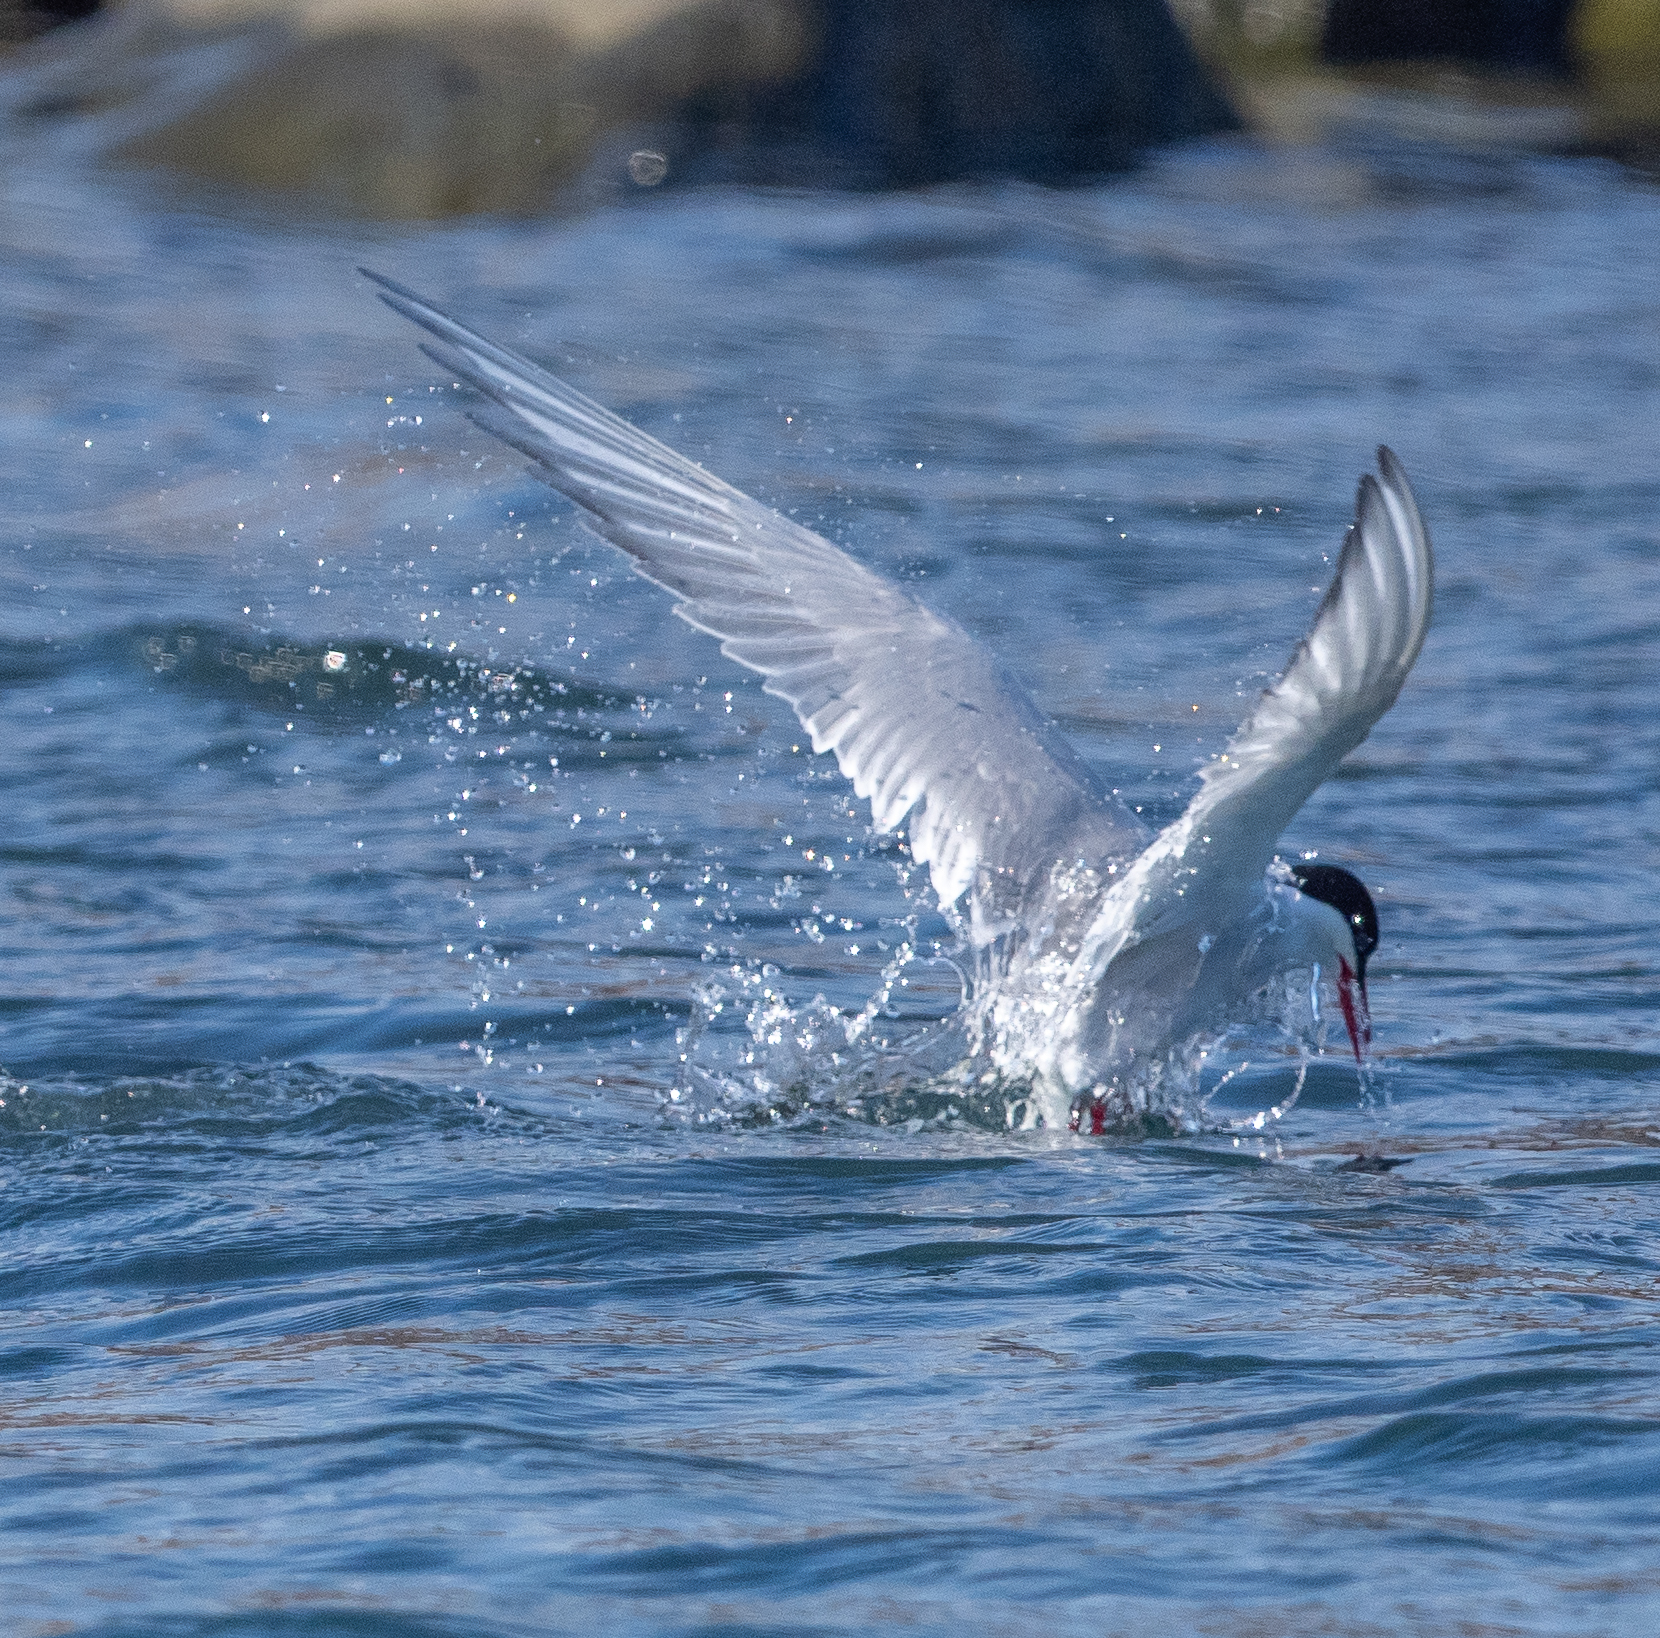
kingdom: Animalia
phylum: Chordata
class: Aves
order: Charadriiformes
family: Laridae
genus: Sterna
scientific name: Sterna paradisaea
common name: Arctic tern
